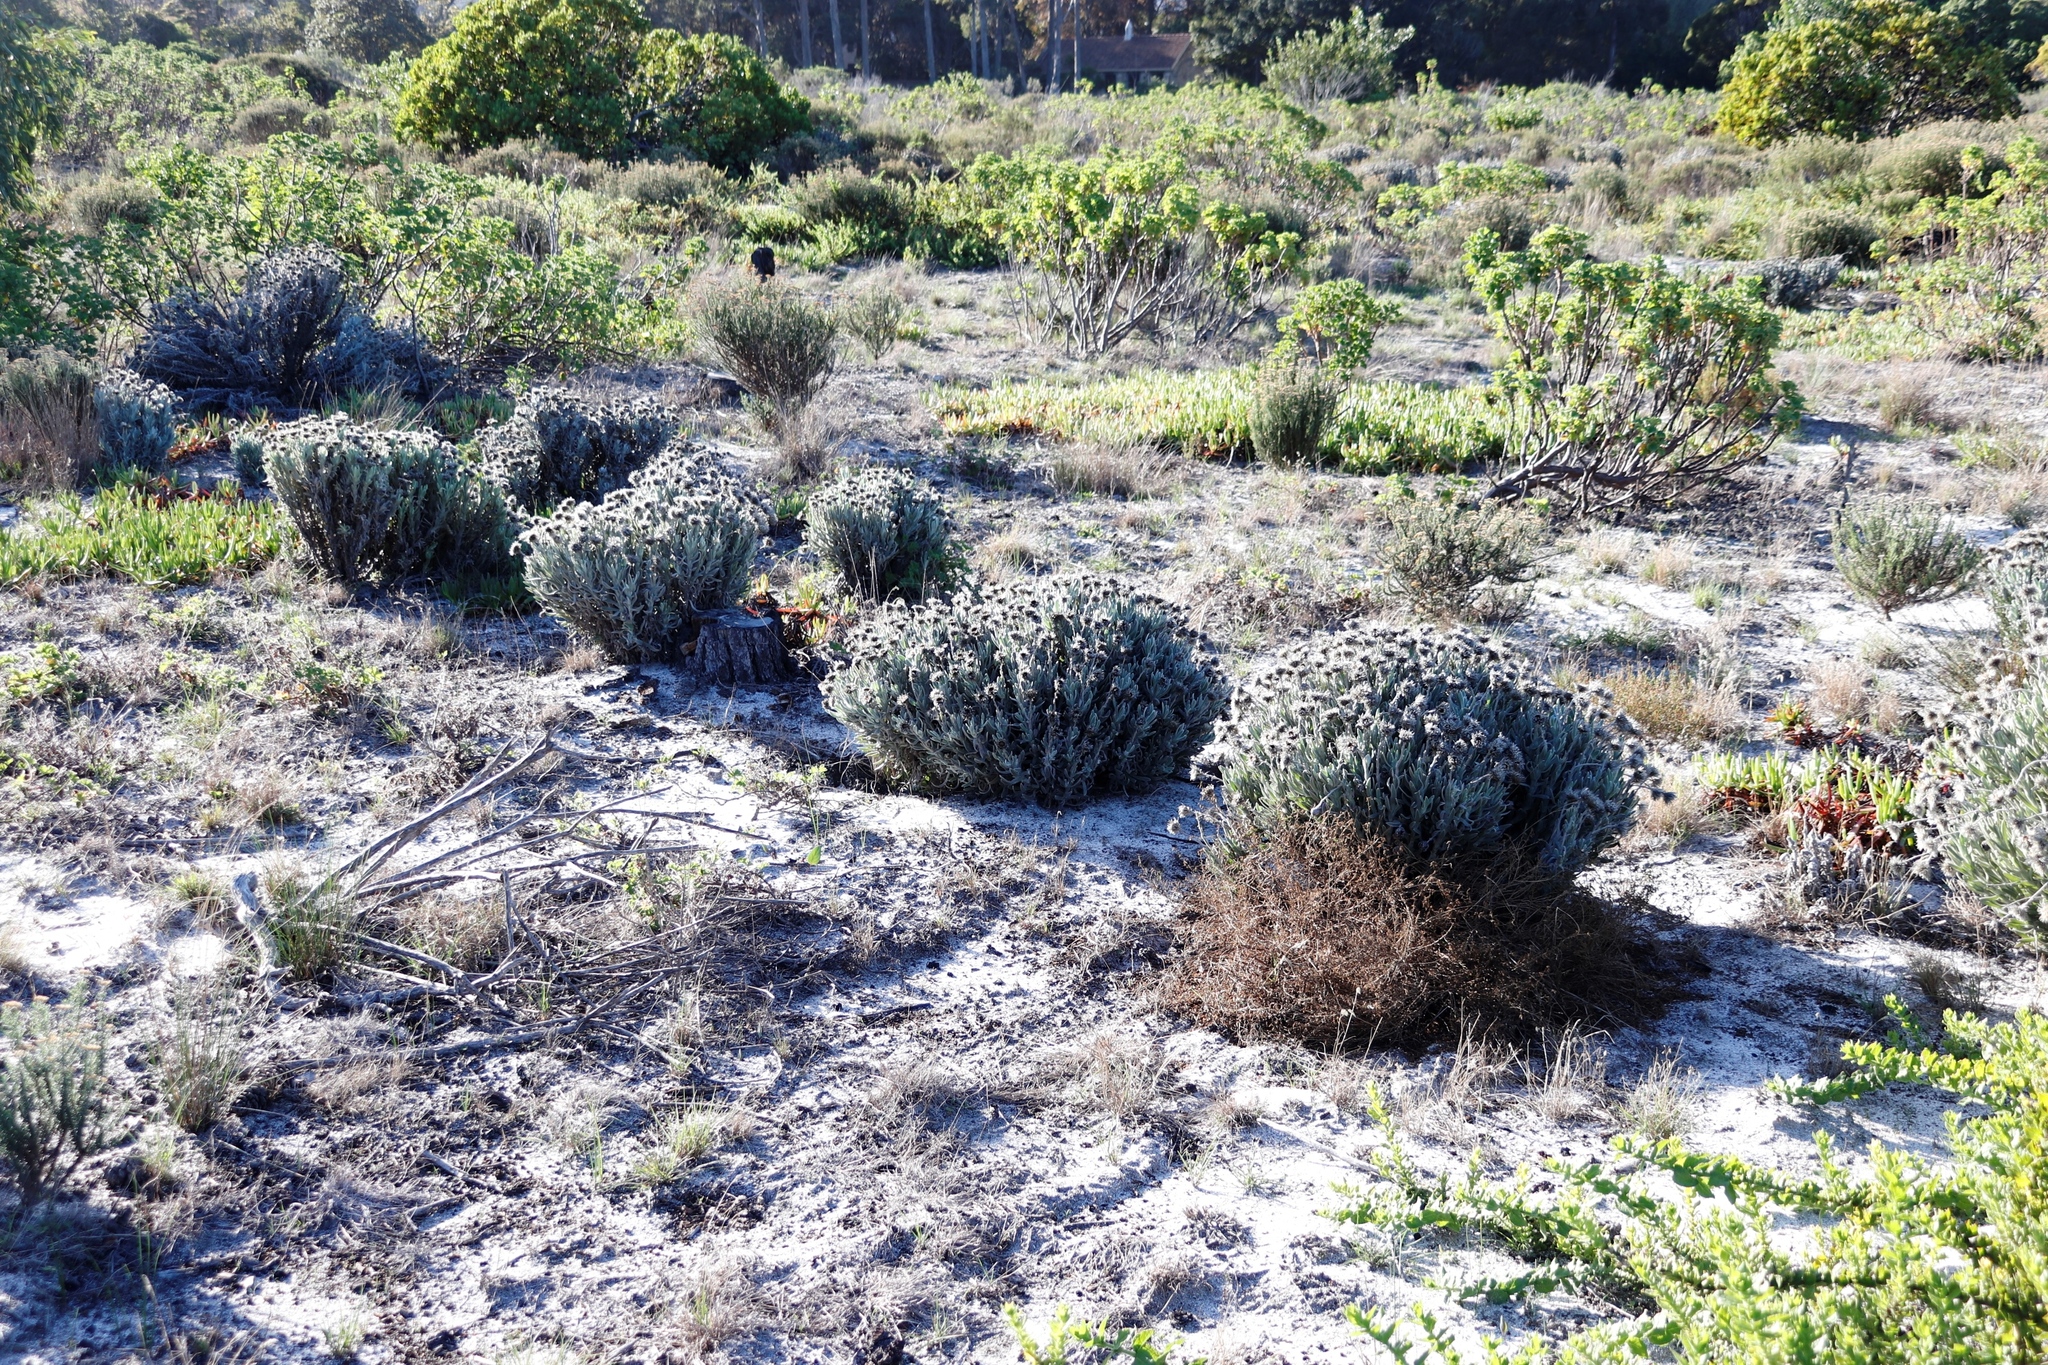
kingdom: Plantae
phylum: Tracheophyta
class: Magnoliopsida
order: Asterales
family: Asteraceae
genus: Syncarpha
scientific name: Syncarpha vestita
